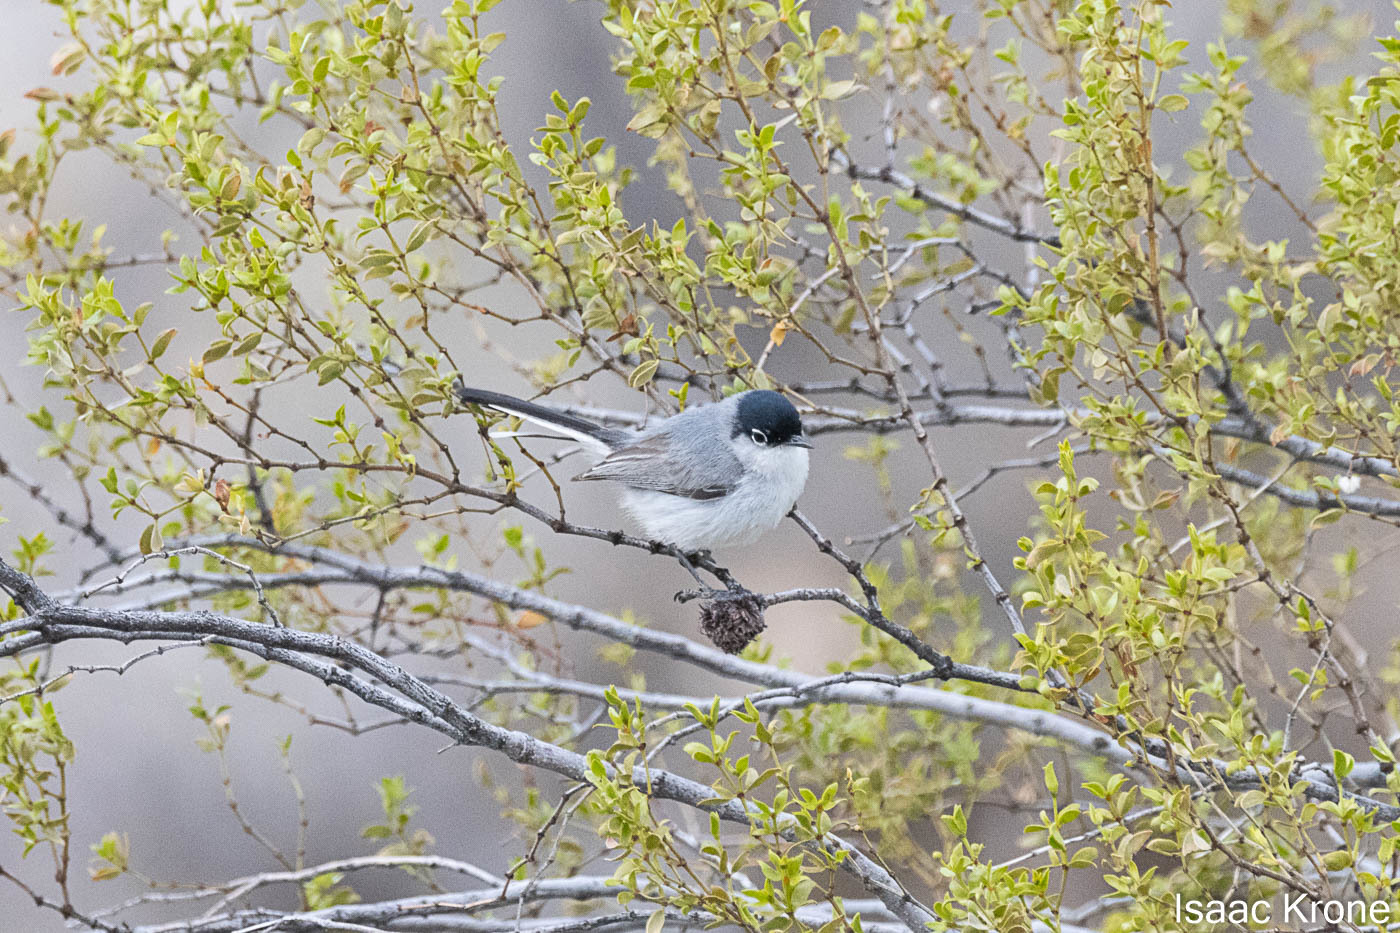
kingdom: Animalia
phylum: Chordata
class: Aves
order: Passeriformes
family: Polioptilidae
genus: Polioptila
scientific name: Polioptila melanura
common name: Black-tailed gnatcatcher
